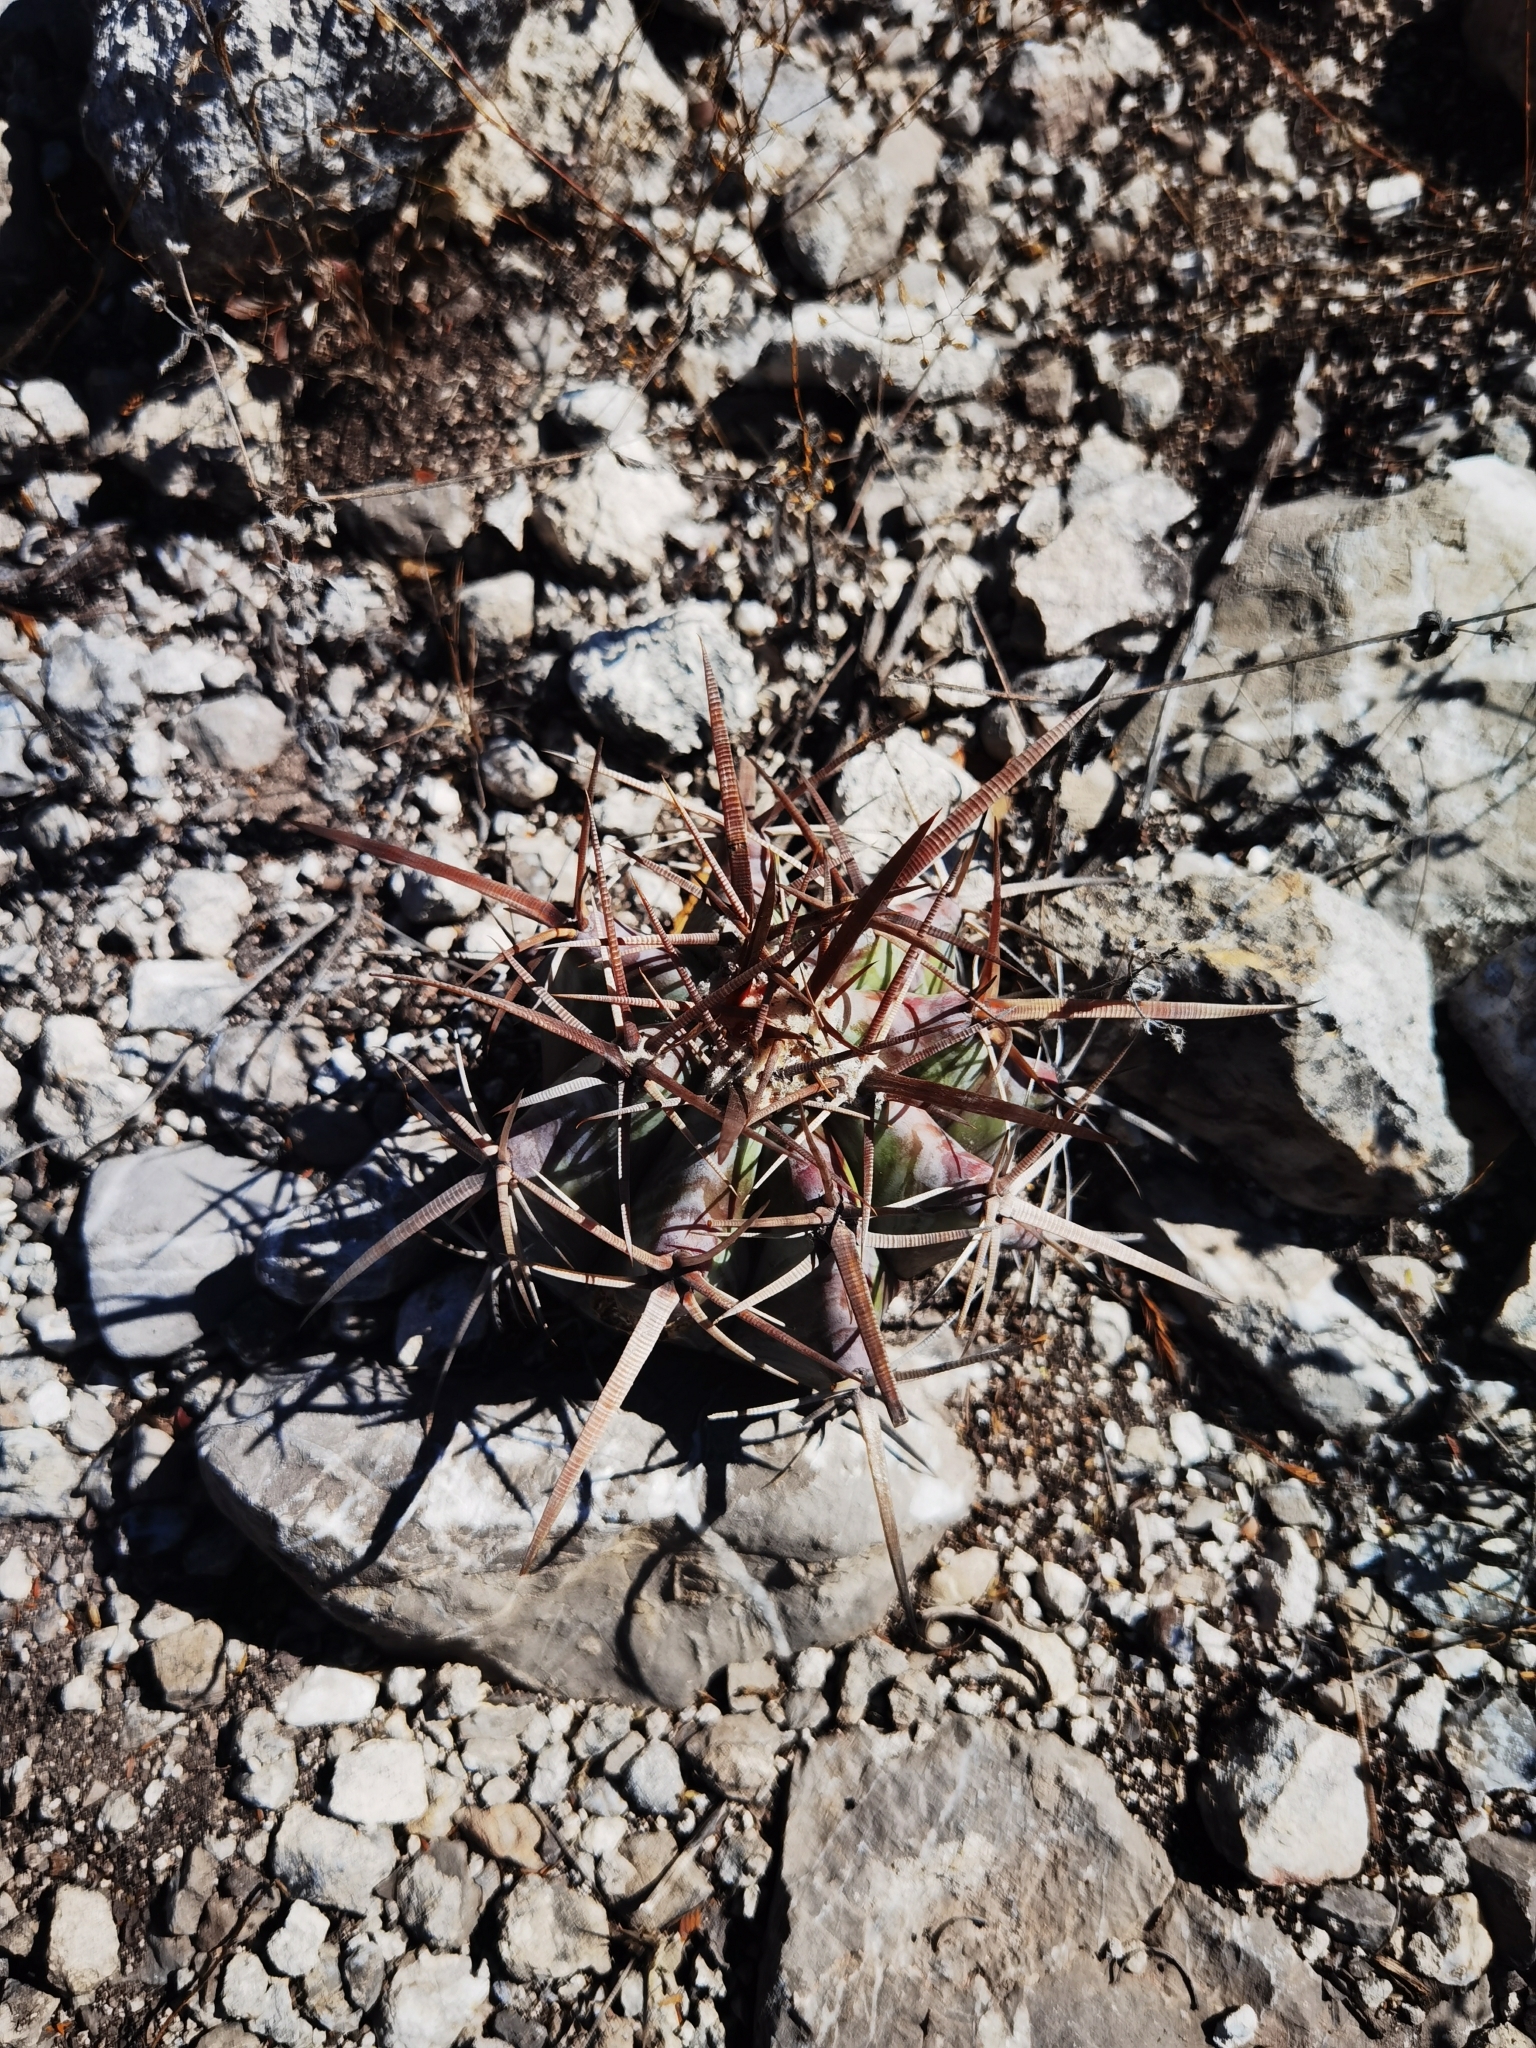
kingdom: Plantae
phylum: Tracheophyta
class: Magnoliopsida
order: Caryophyllales
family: Cactaceae
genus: Echinocactus
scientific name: Echinocactus platyacanthus
